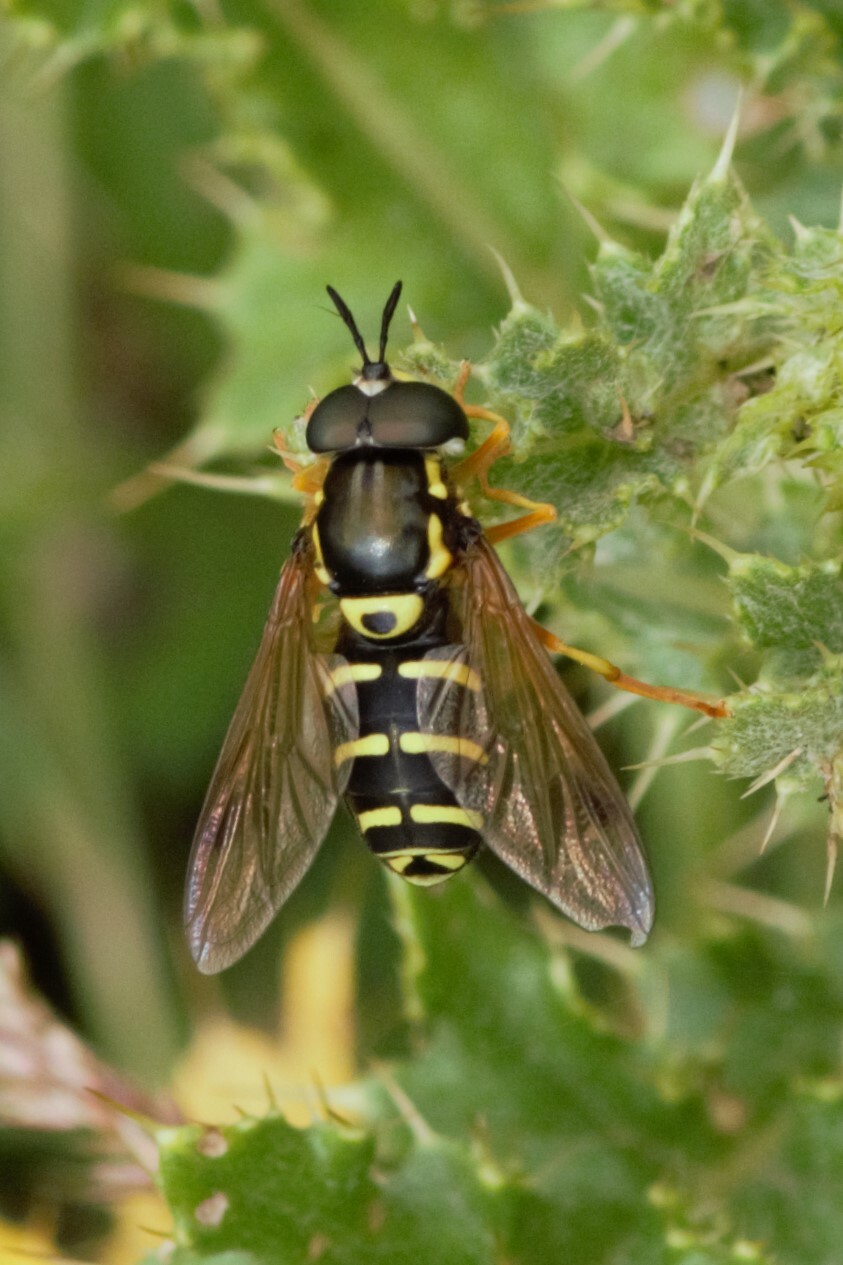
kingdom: Animalia
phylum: Arthropoda
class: Insecta
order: Diptera
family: Syrphidae
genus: Chrysotoxum
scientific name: Chrysotoxum festivum
